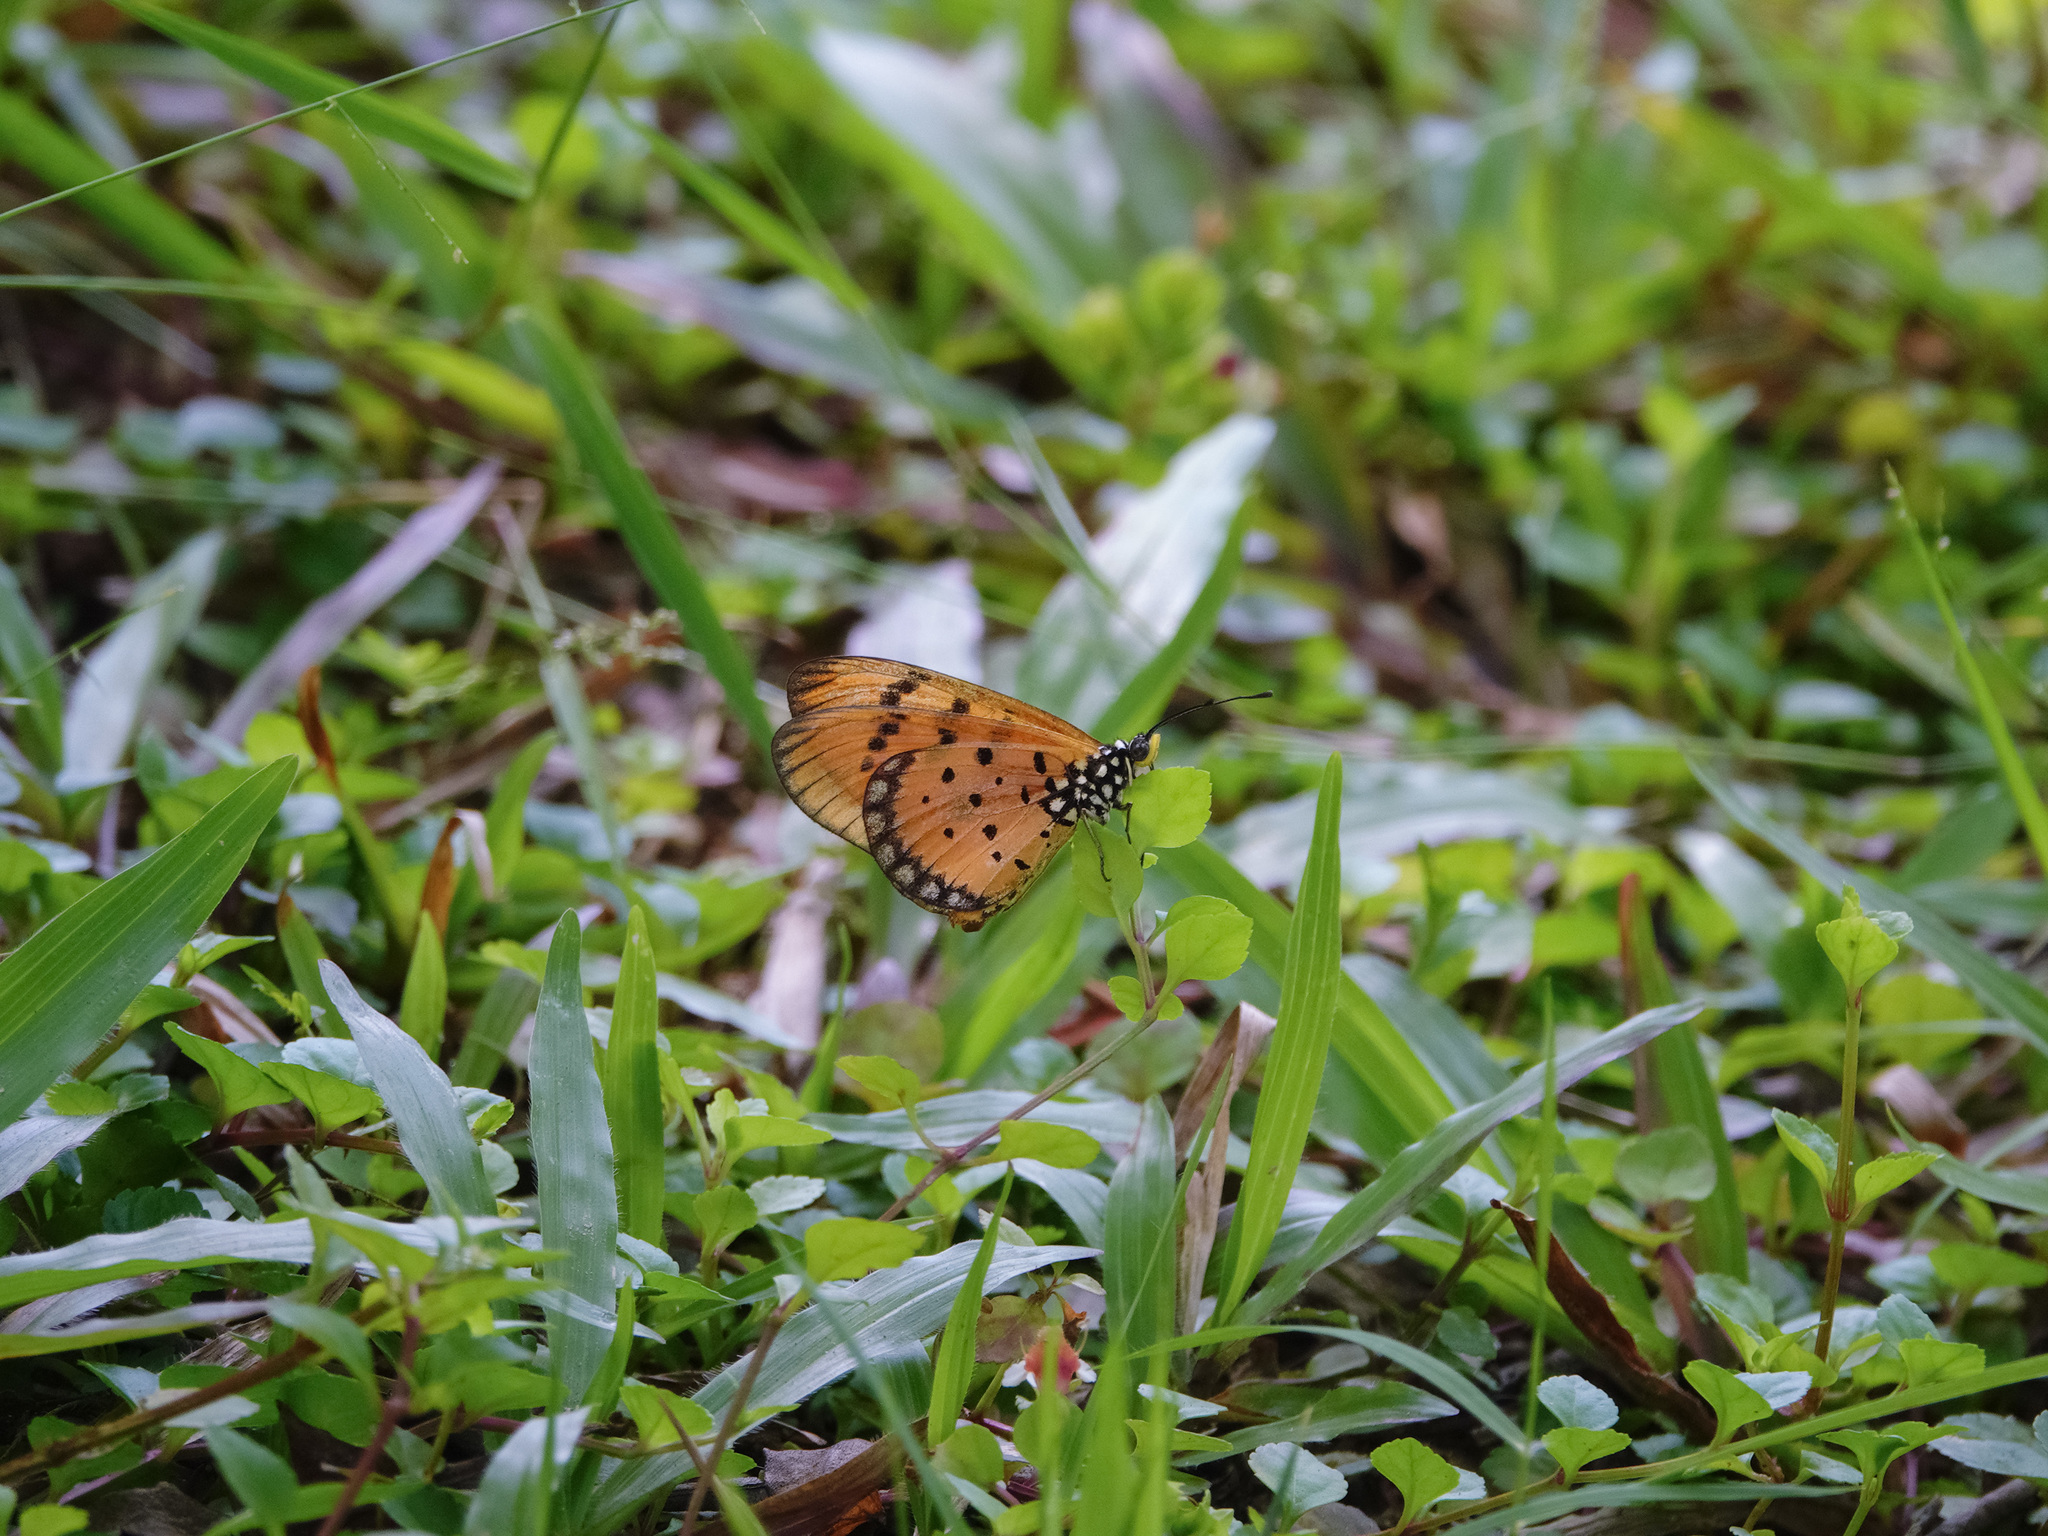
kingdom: Animalia
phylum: Arthropoda
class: Insecta
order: Lepidoptera
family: Nymphalidae
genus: Acraea
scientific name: Acraea terpsicore
